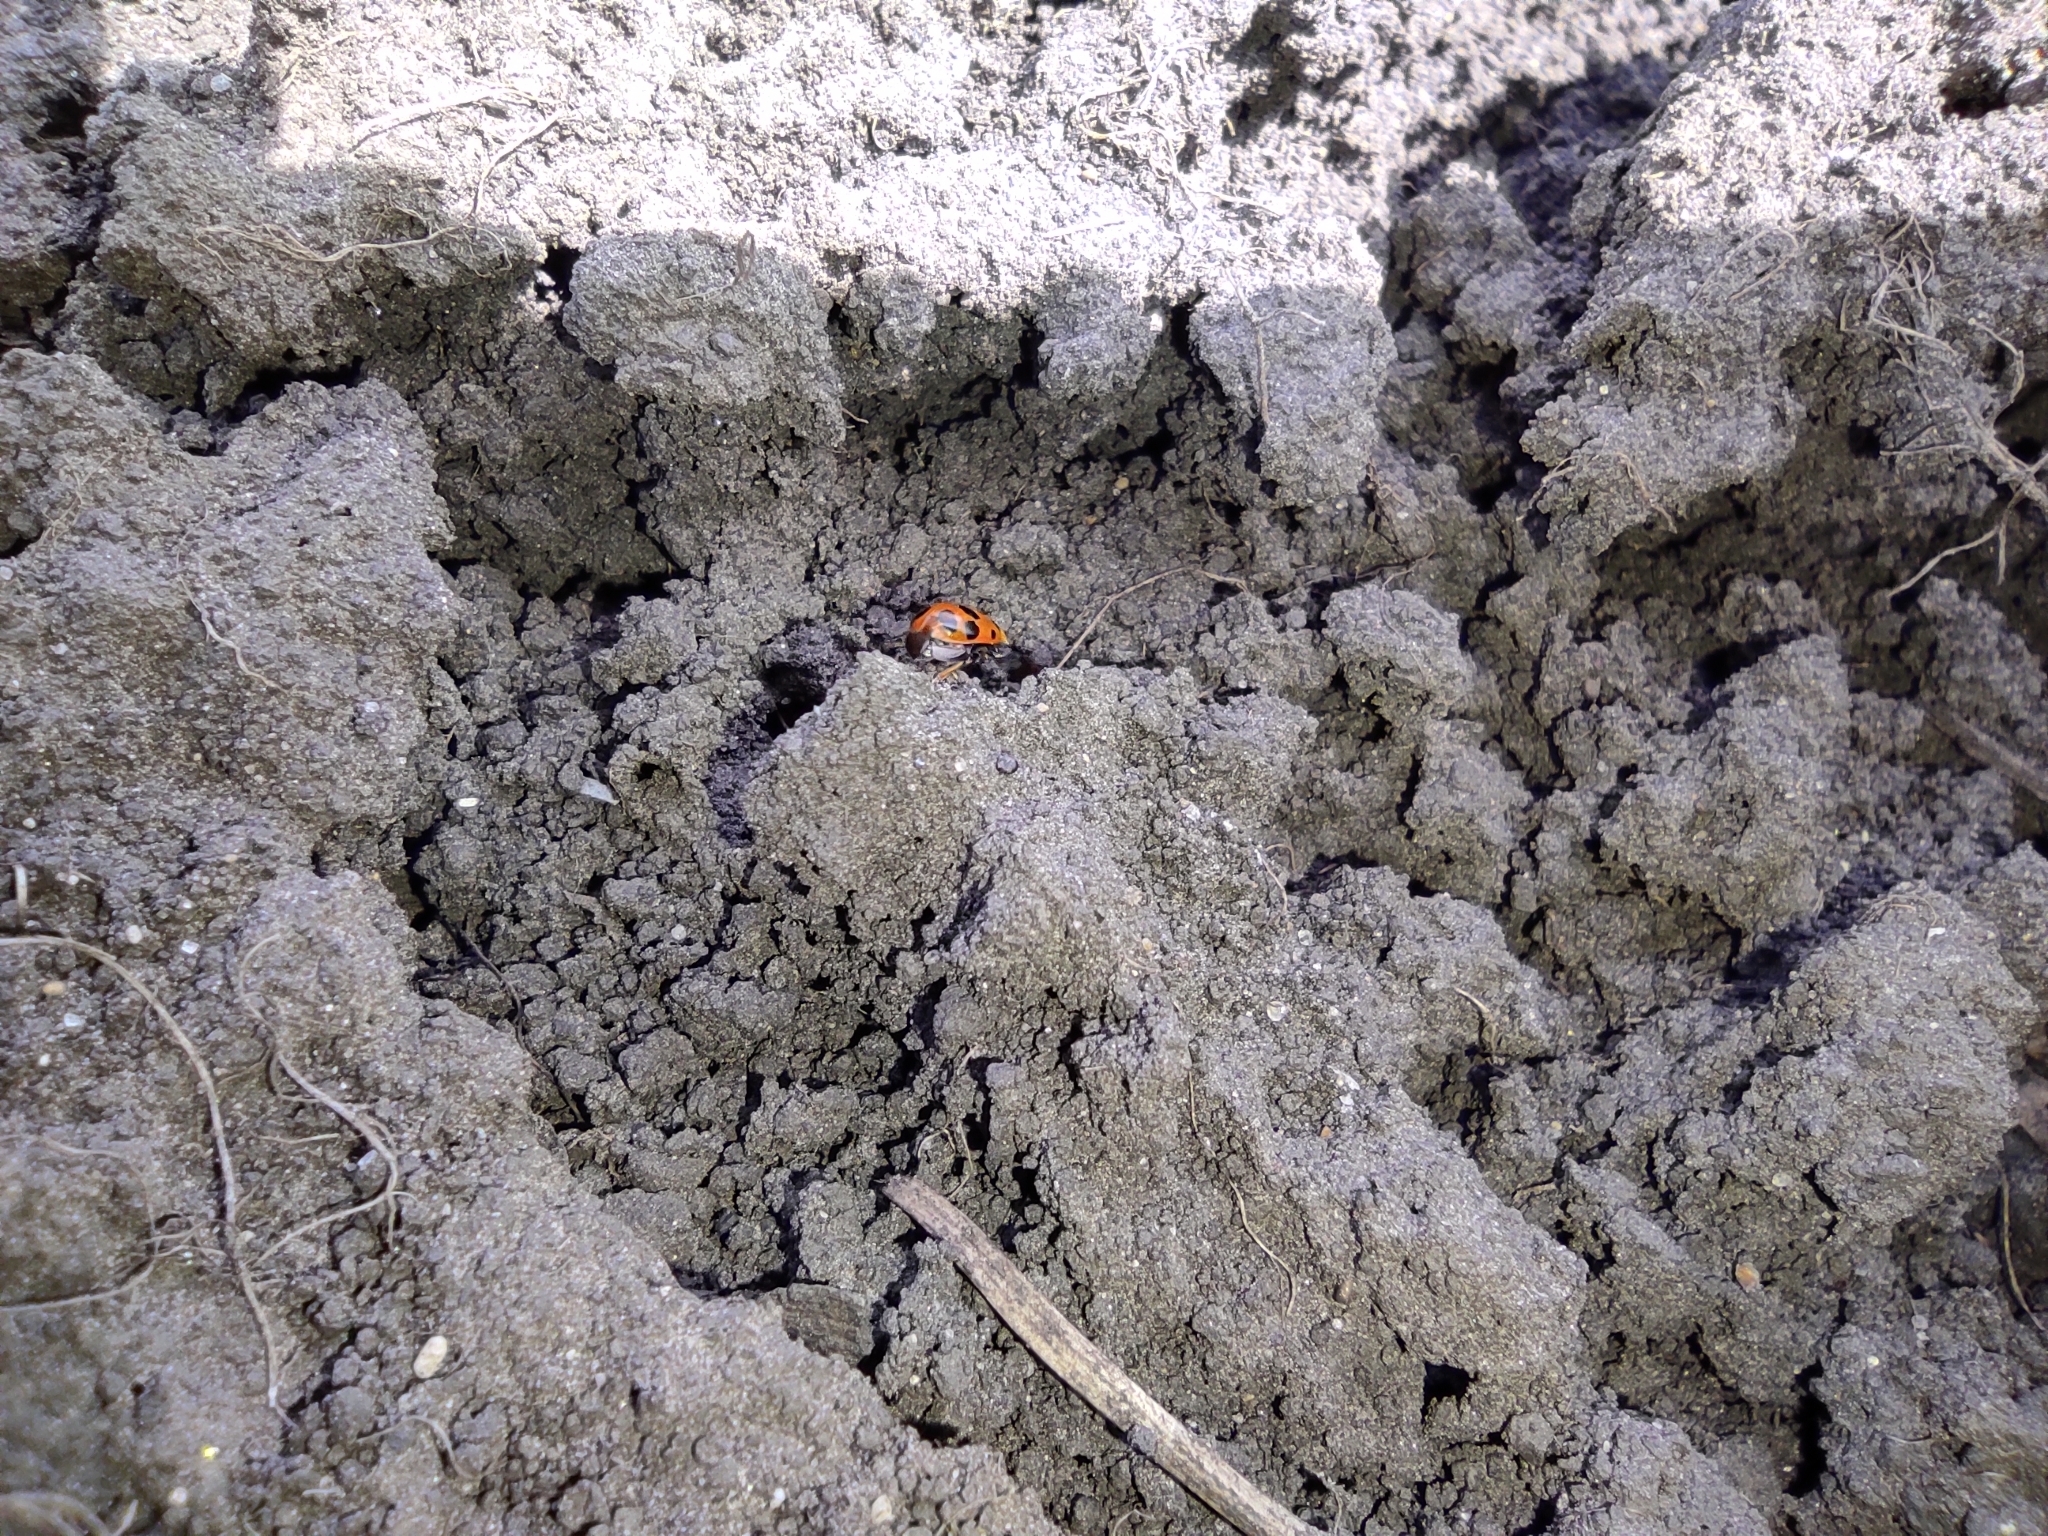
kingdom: Animalia
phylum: Arthropoda
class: Insecta
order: Coleoptera
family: Coccinellidae
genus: Hippodamia
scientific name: Hippodamia tredecimpunctata
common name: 13-spot ladybird
